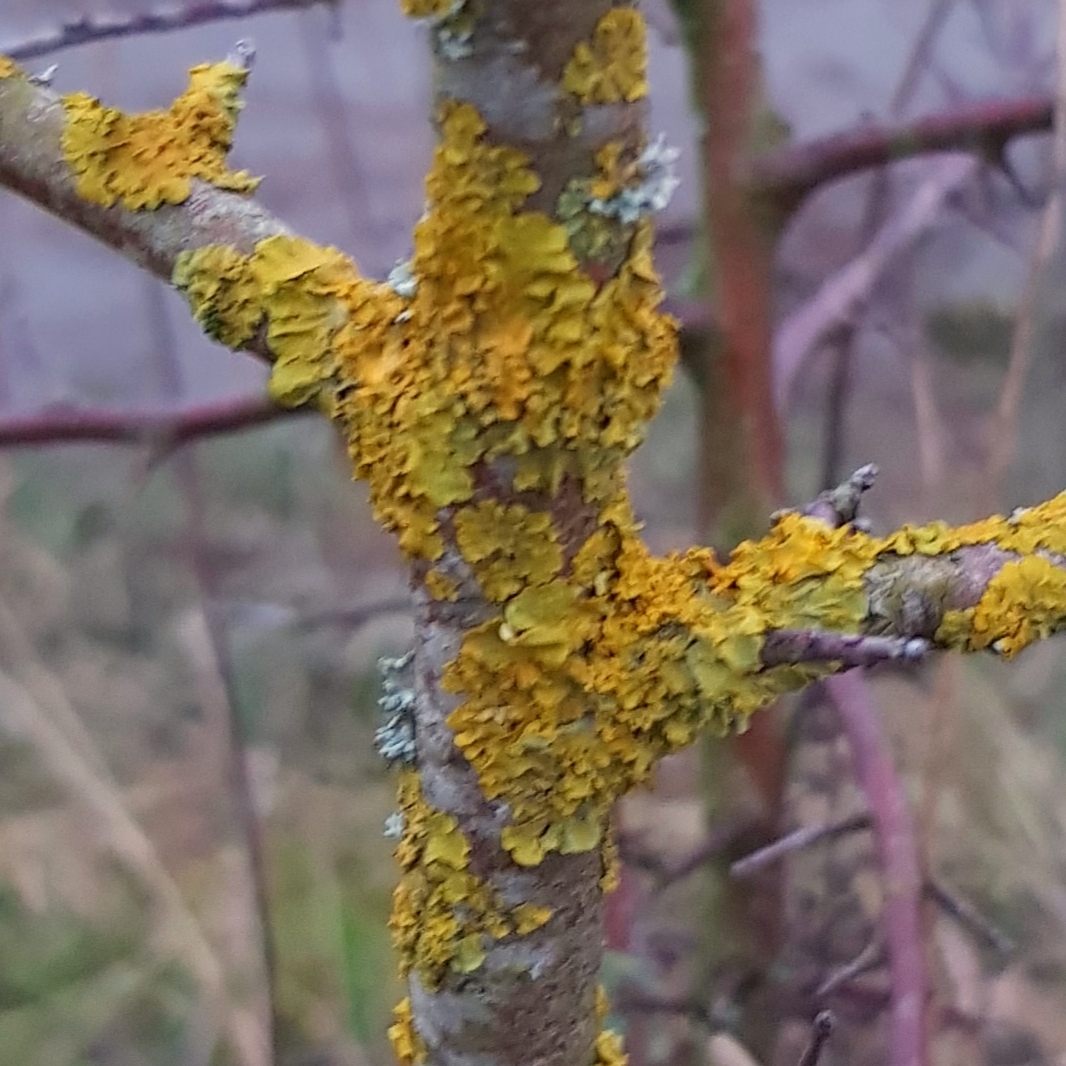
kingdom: Fungi
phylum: Ascomycota
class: Lecanoromycetes
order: Teloschistales
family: Teloschistaceae
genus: Xanthoria
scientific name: Xanthoria parietina
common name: Common orange lichen
